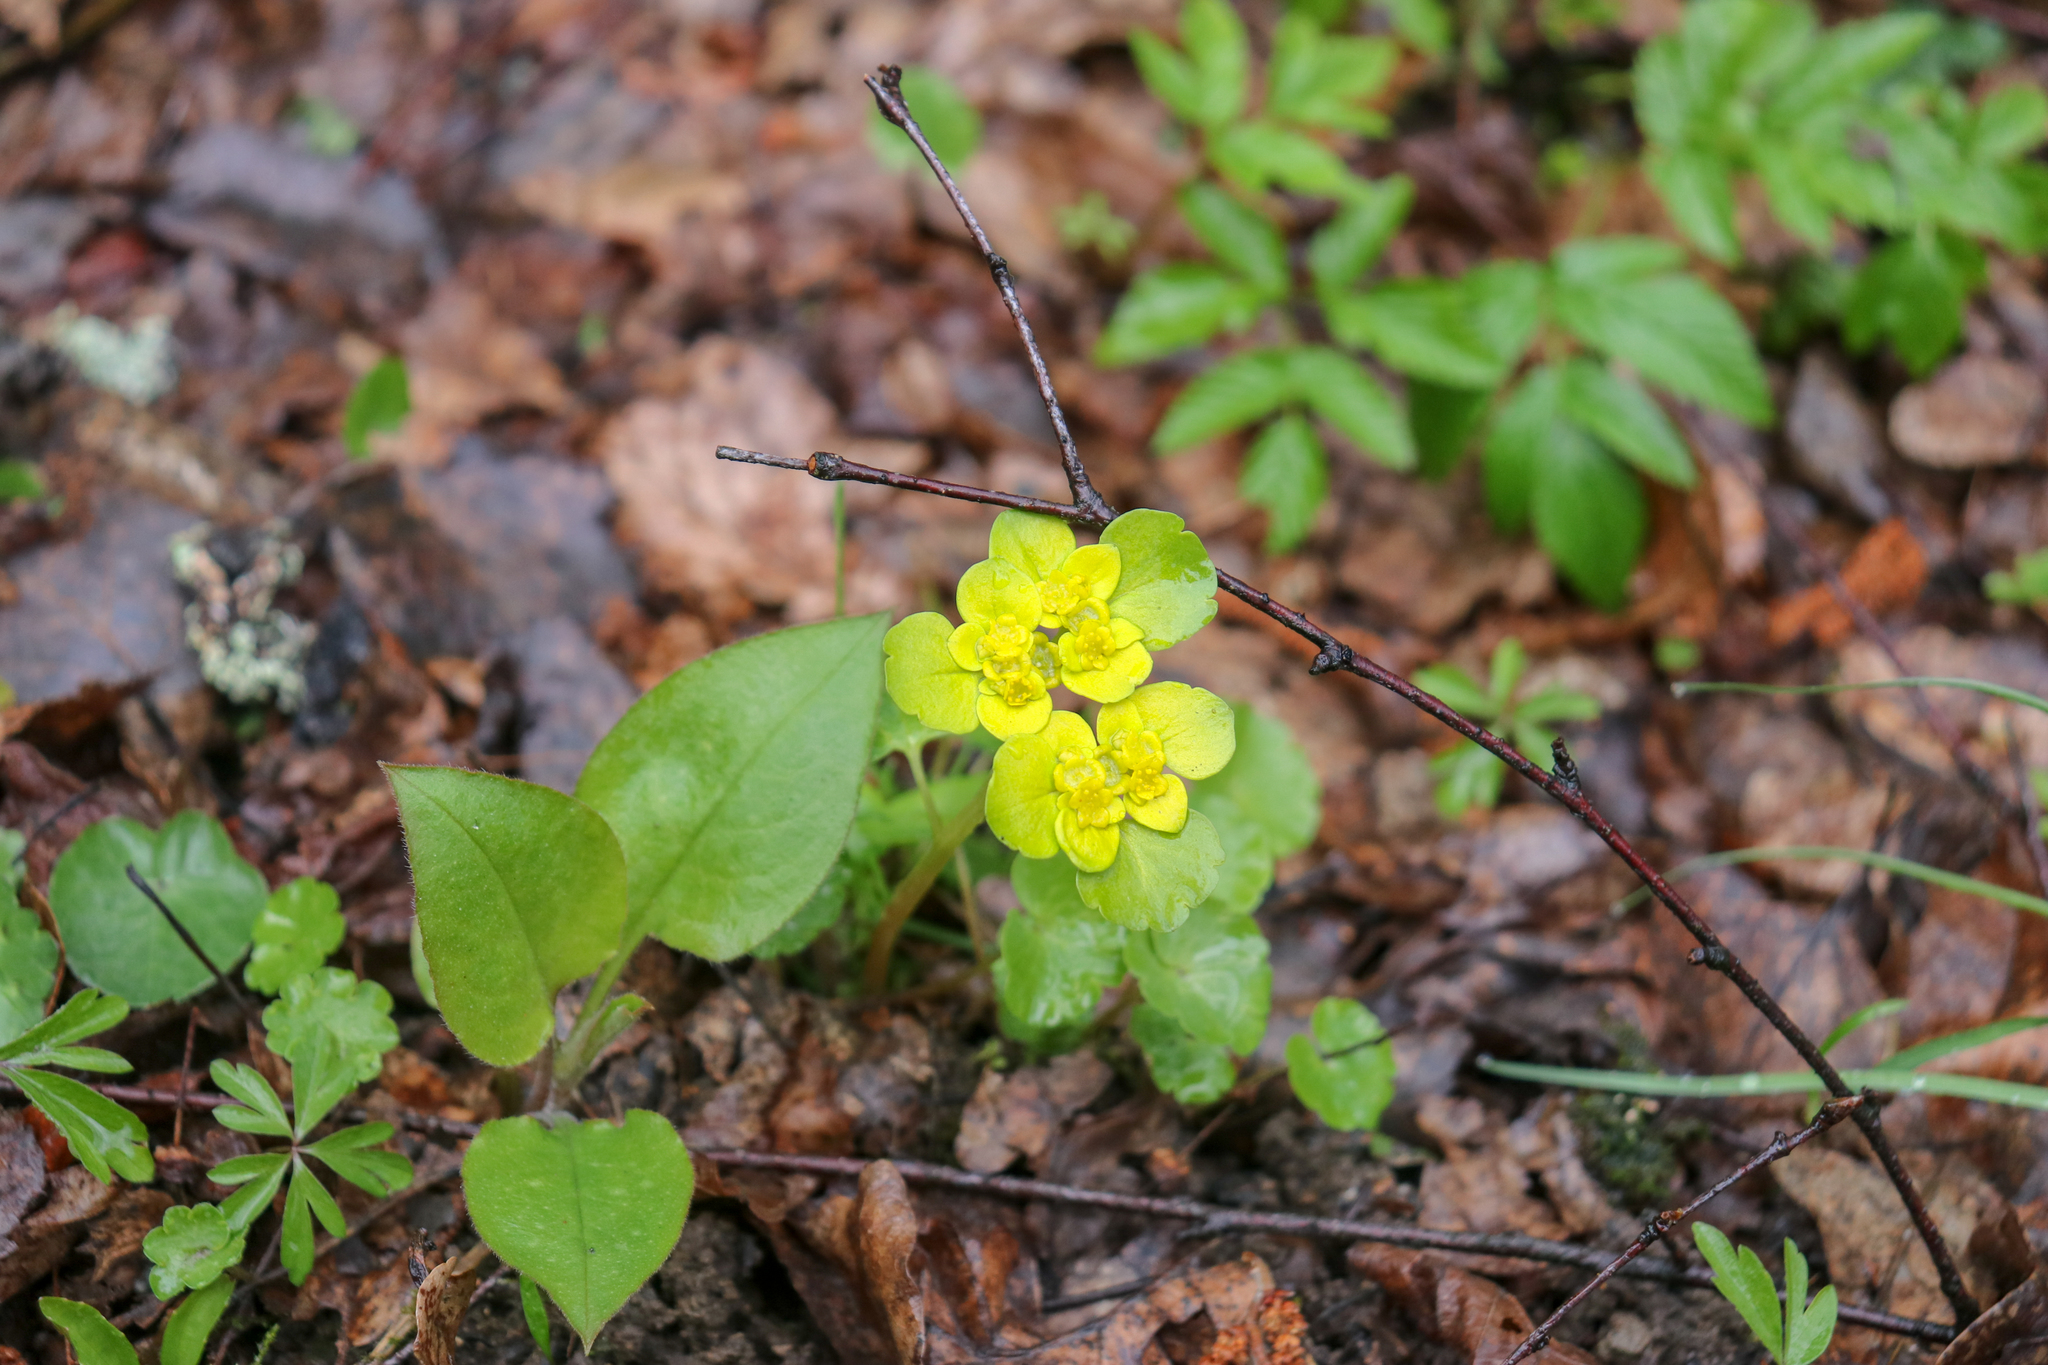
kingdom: Plantae
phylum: Tracheophyta
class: Magnoliopsida
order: Saxifragales
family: Saxifragaceae
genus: Chrysosplenium
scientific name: Chrysosplenium alternifolium
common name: Alternate-leaved golden-saxifrage
